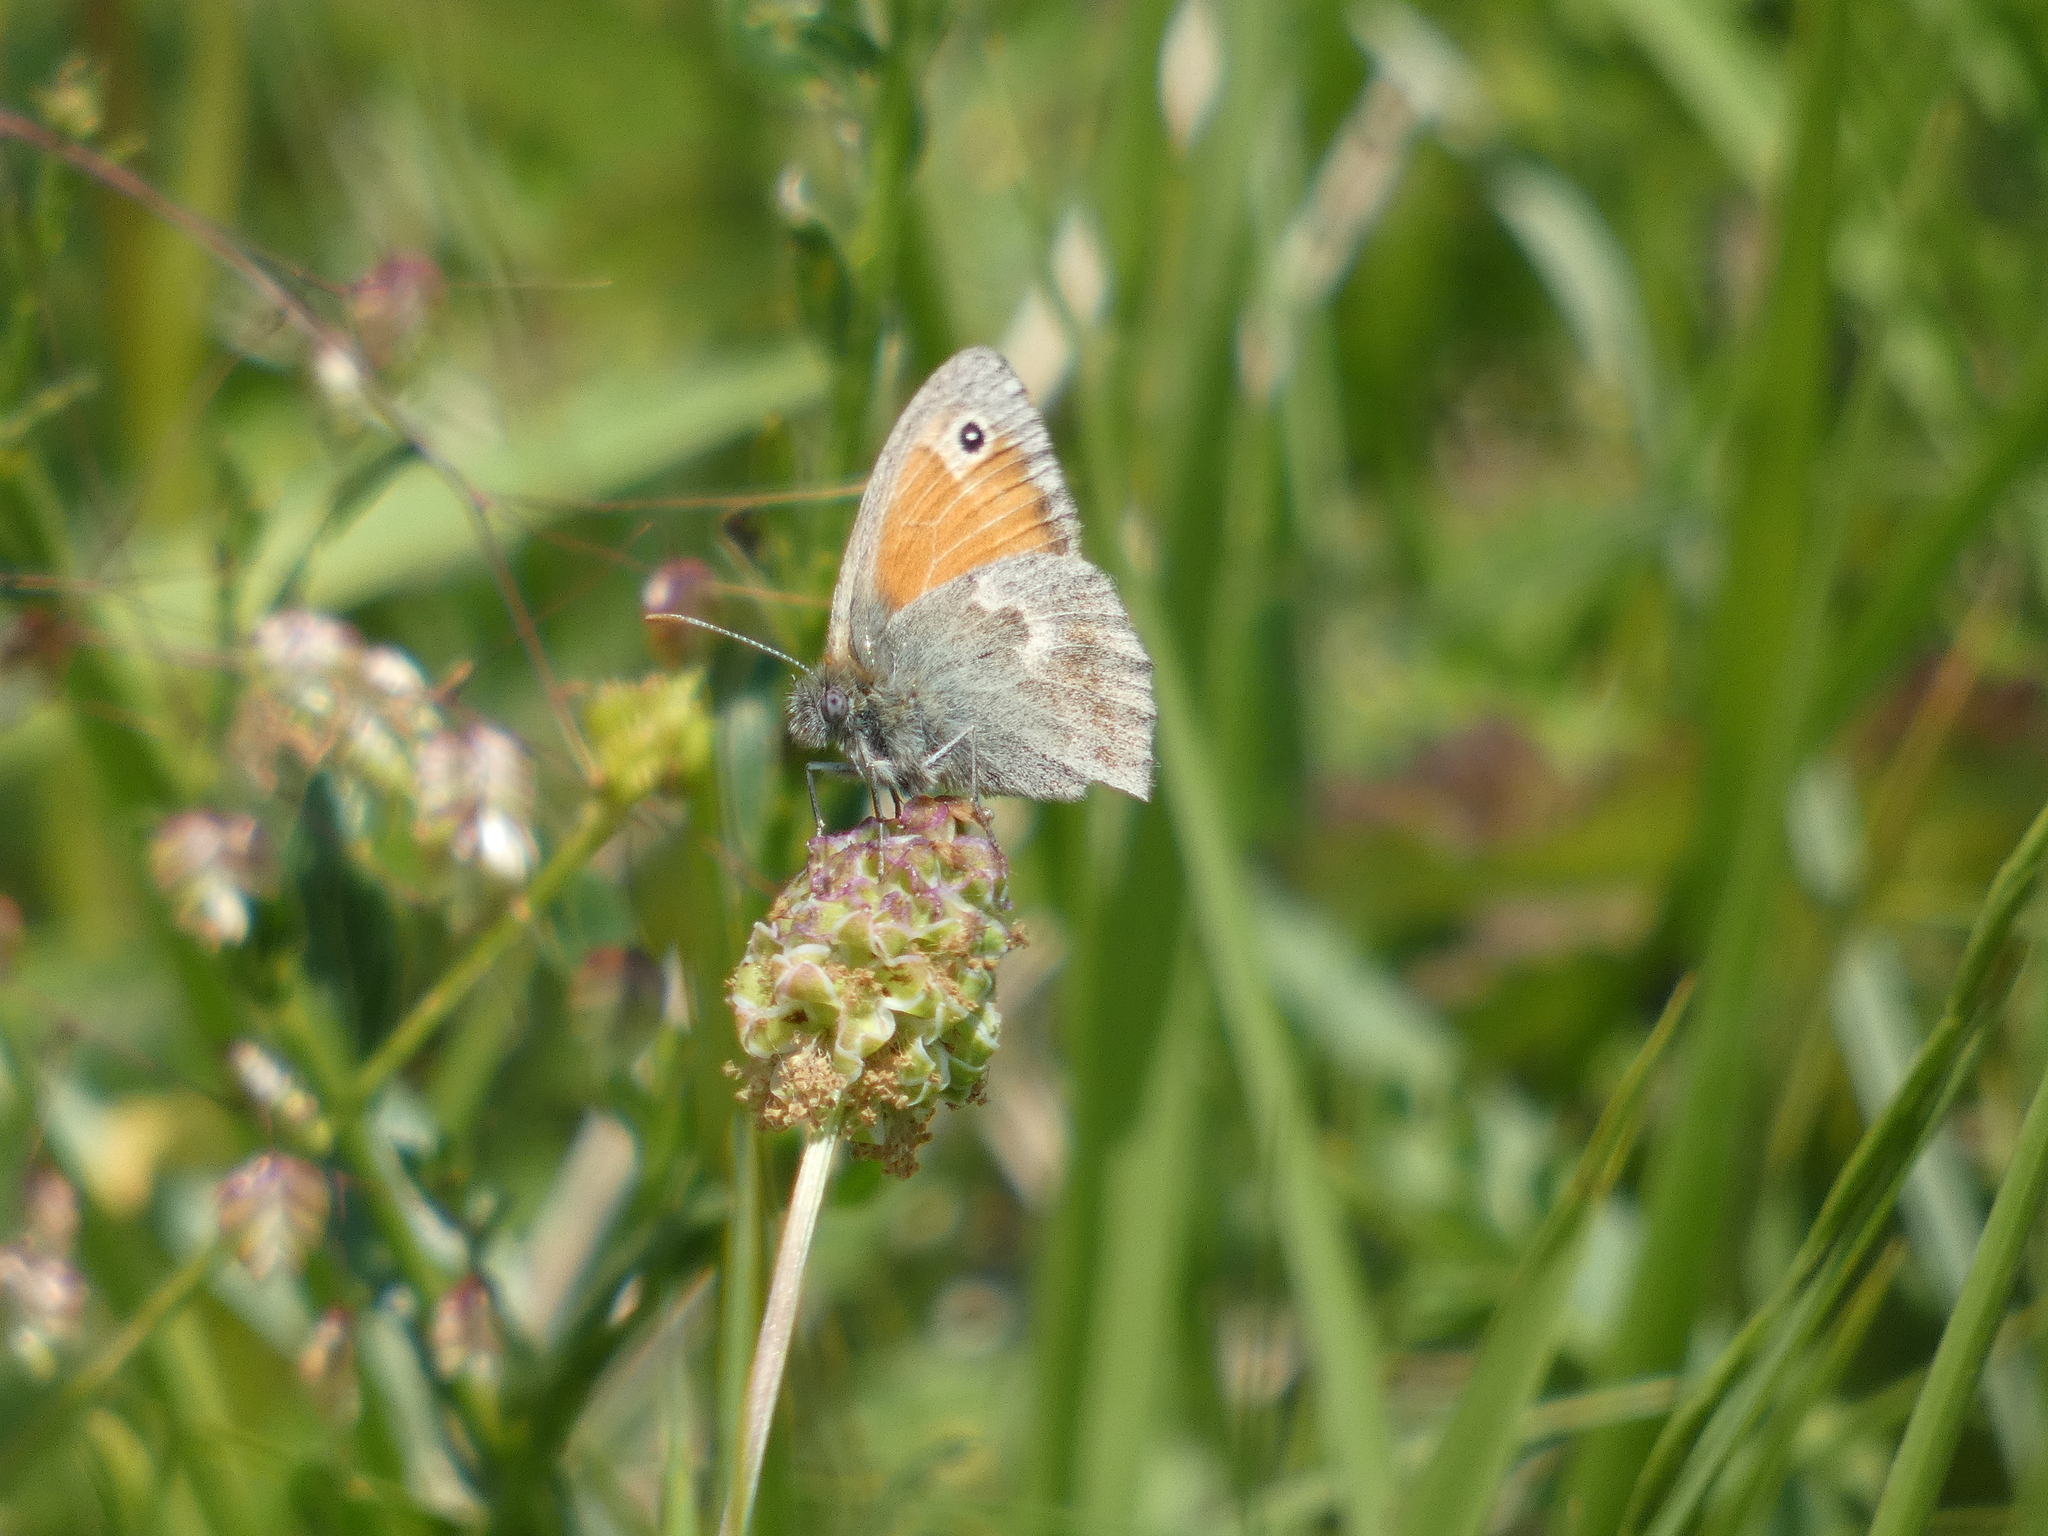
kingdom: Animalia
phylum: Arthropoda
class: Insecta
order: Lepidoptera
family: Nymphalidae
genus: Coenonympha
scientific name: Coenonympha pamphilus
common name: Small heath
